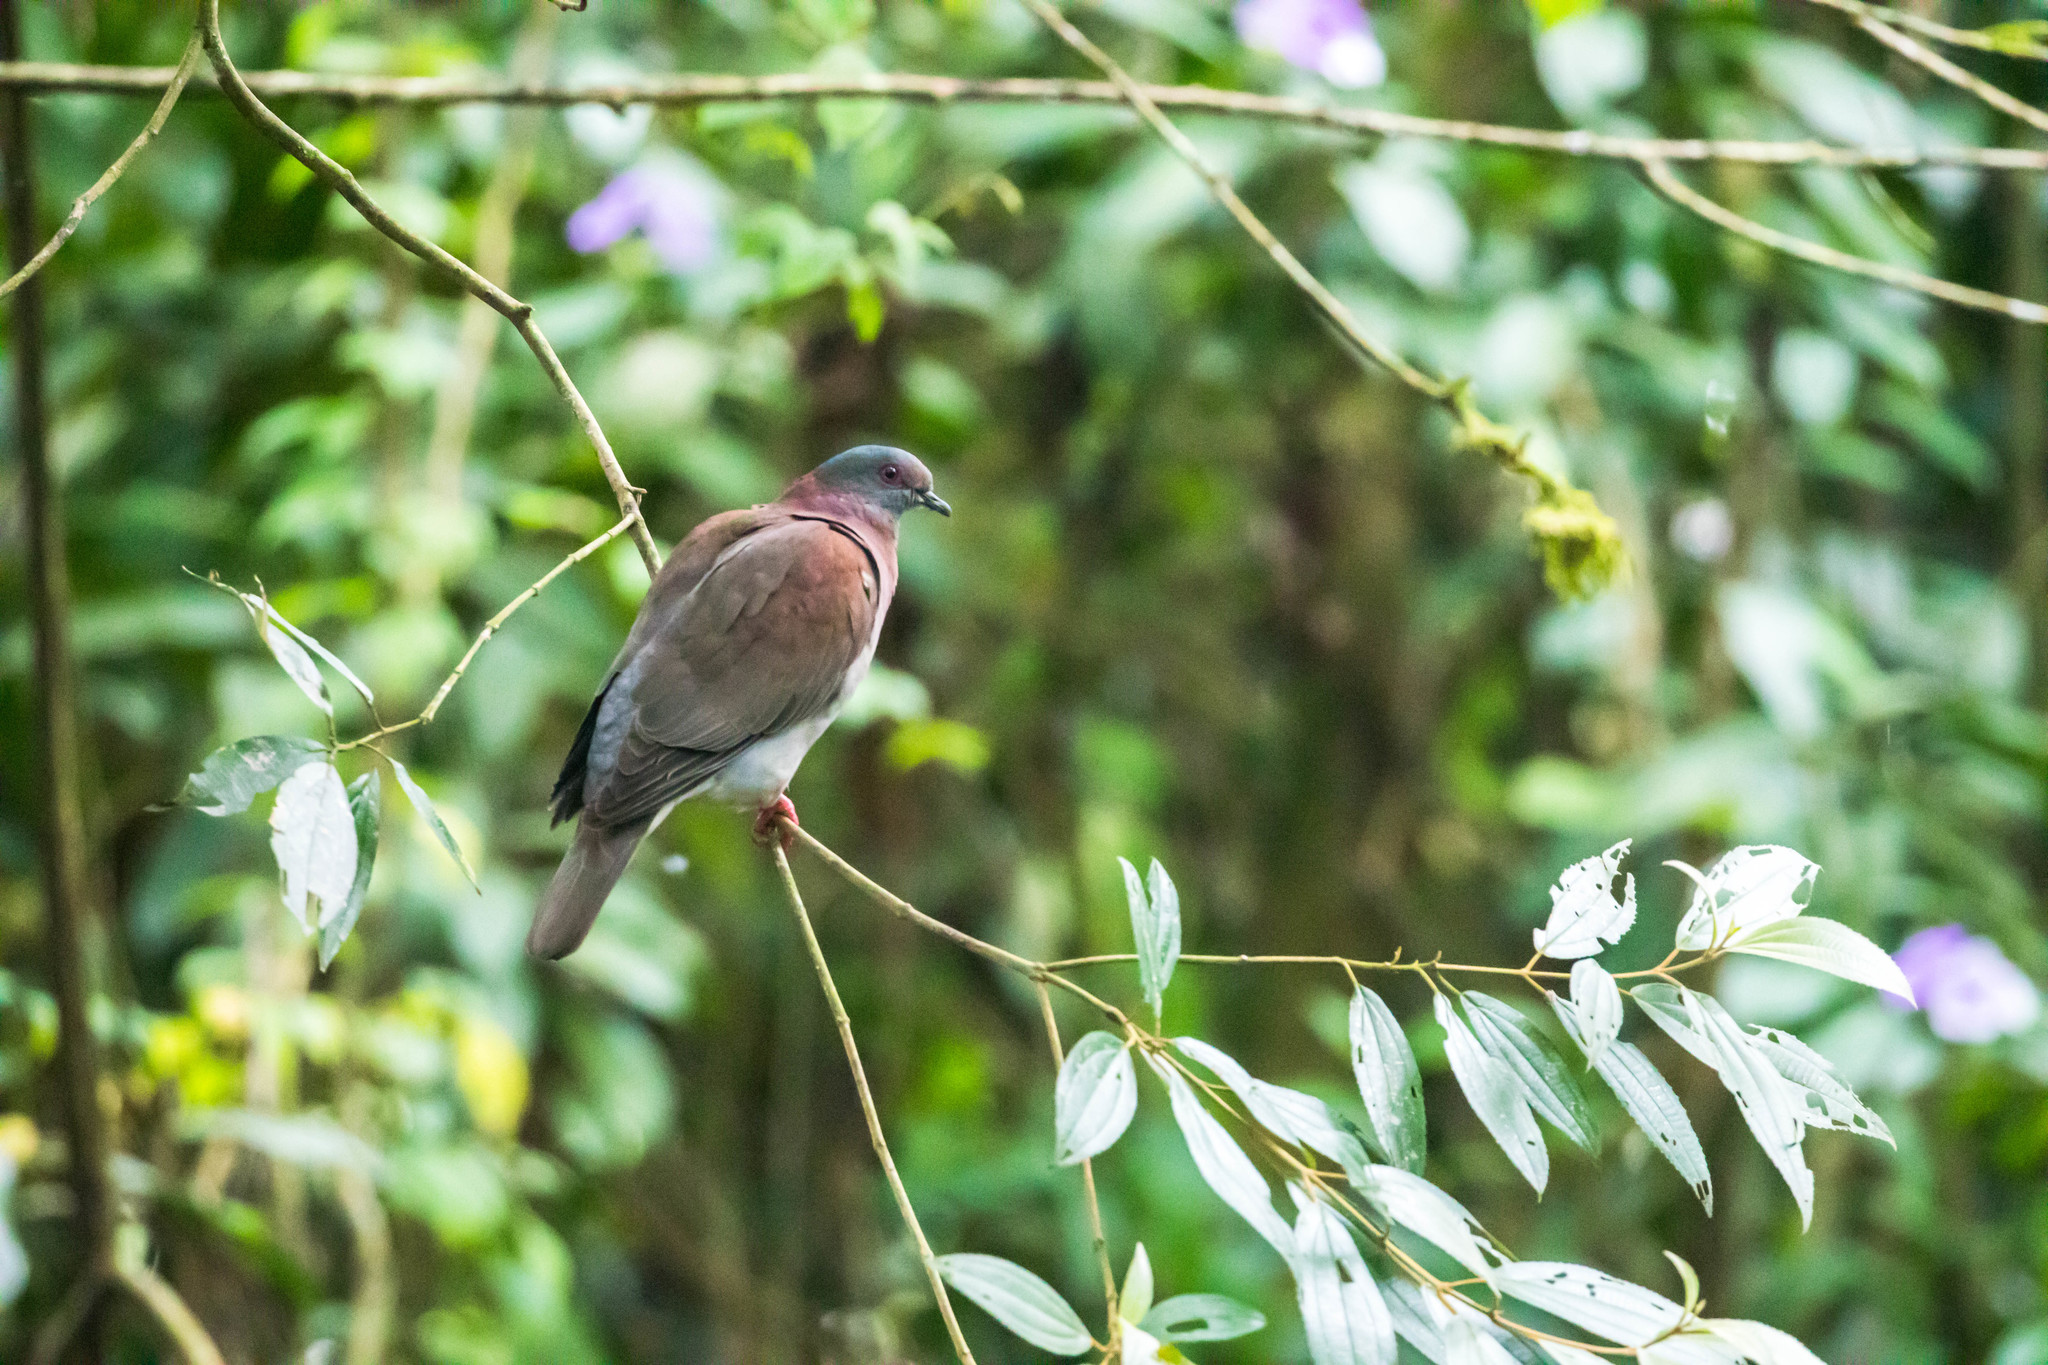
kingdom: Animalia
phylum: Chordata
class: Aves
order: Columbiformes
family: Columbidae
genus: Patagioenas
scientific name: Patagioenas cayennensis
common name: Pale-vented pigeon
